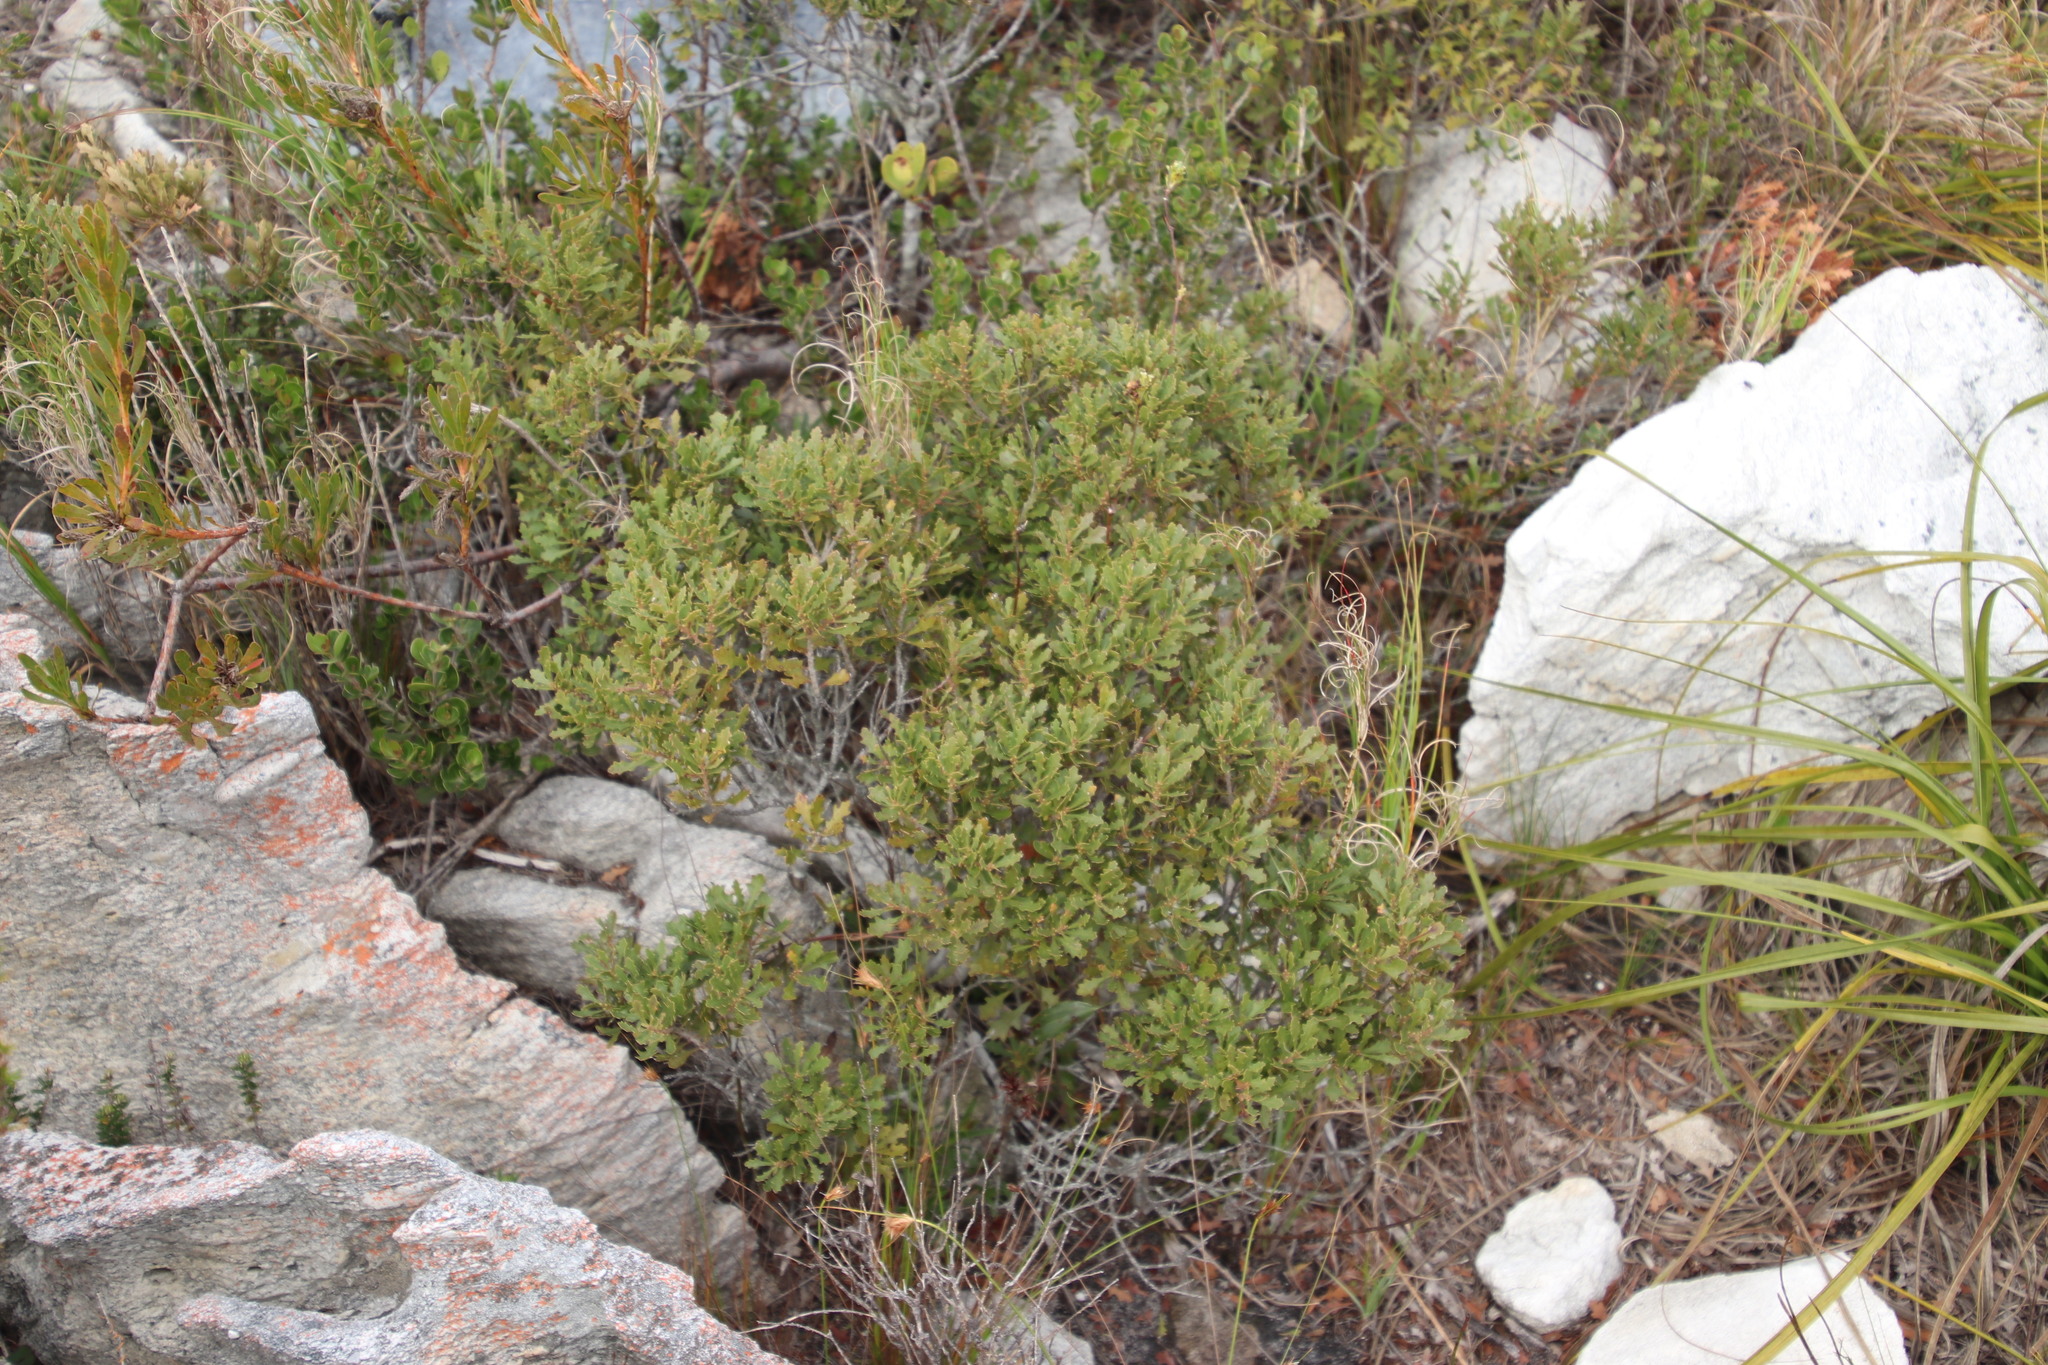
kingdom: Plantae
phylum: Tracheophyta
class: Magnoliopsida
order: Fagales
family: Myricaceae
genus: Morella
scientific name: Morella quercifolia
